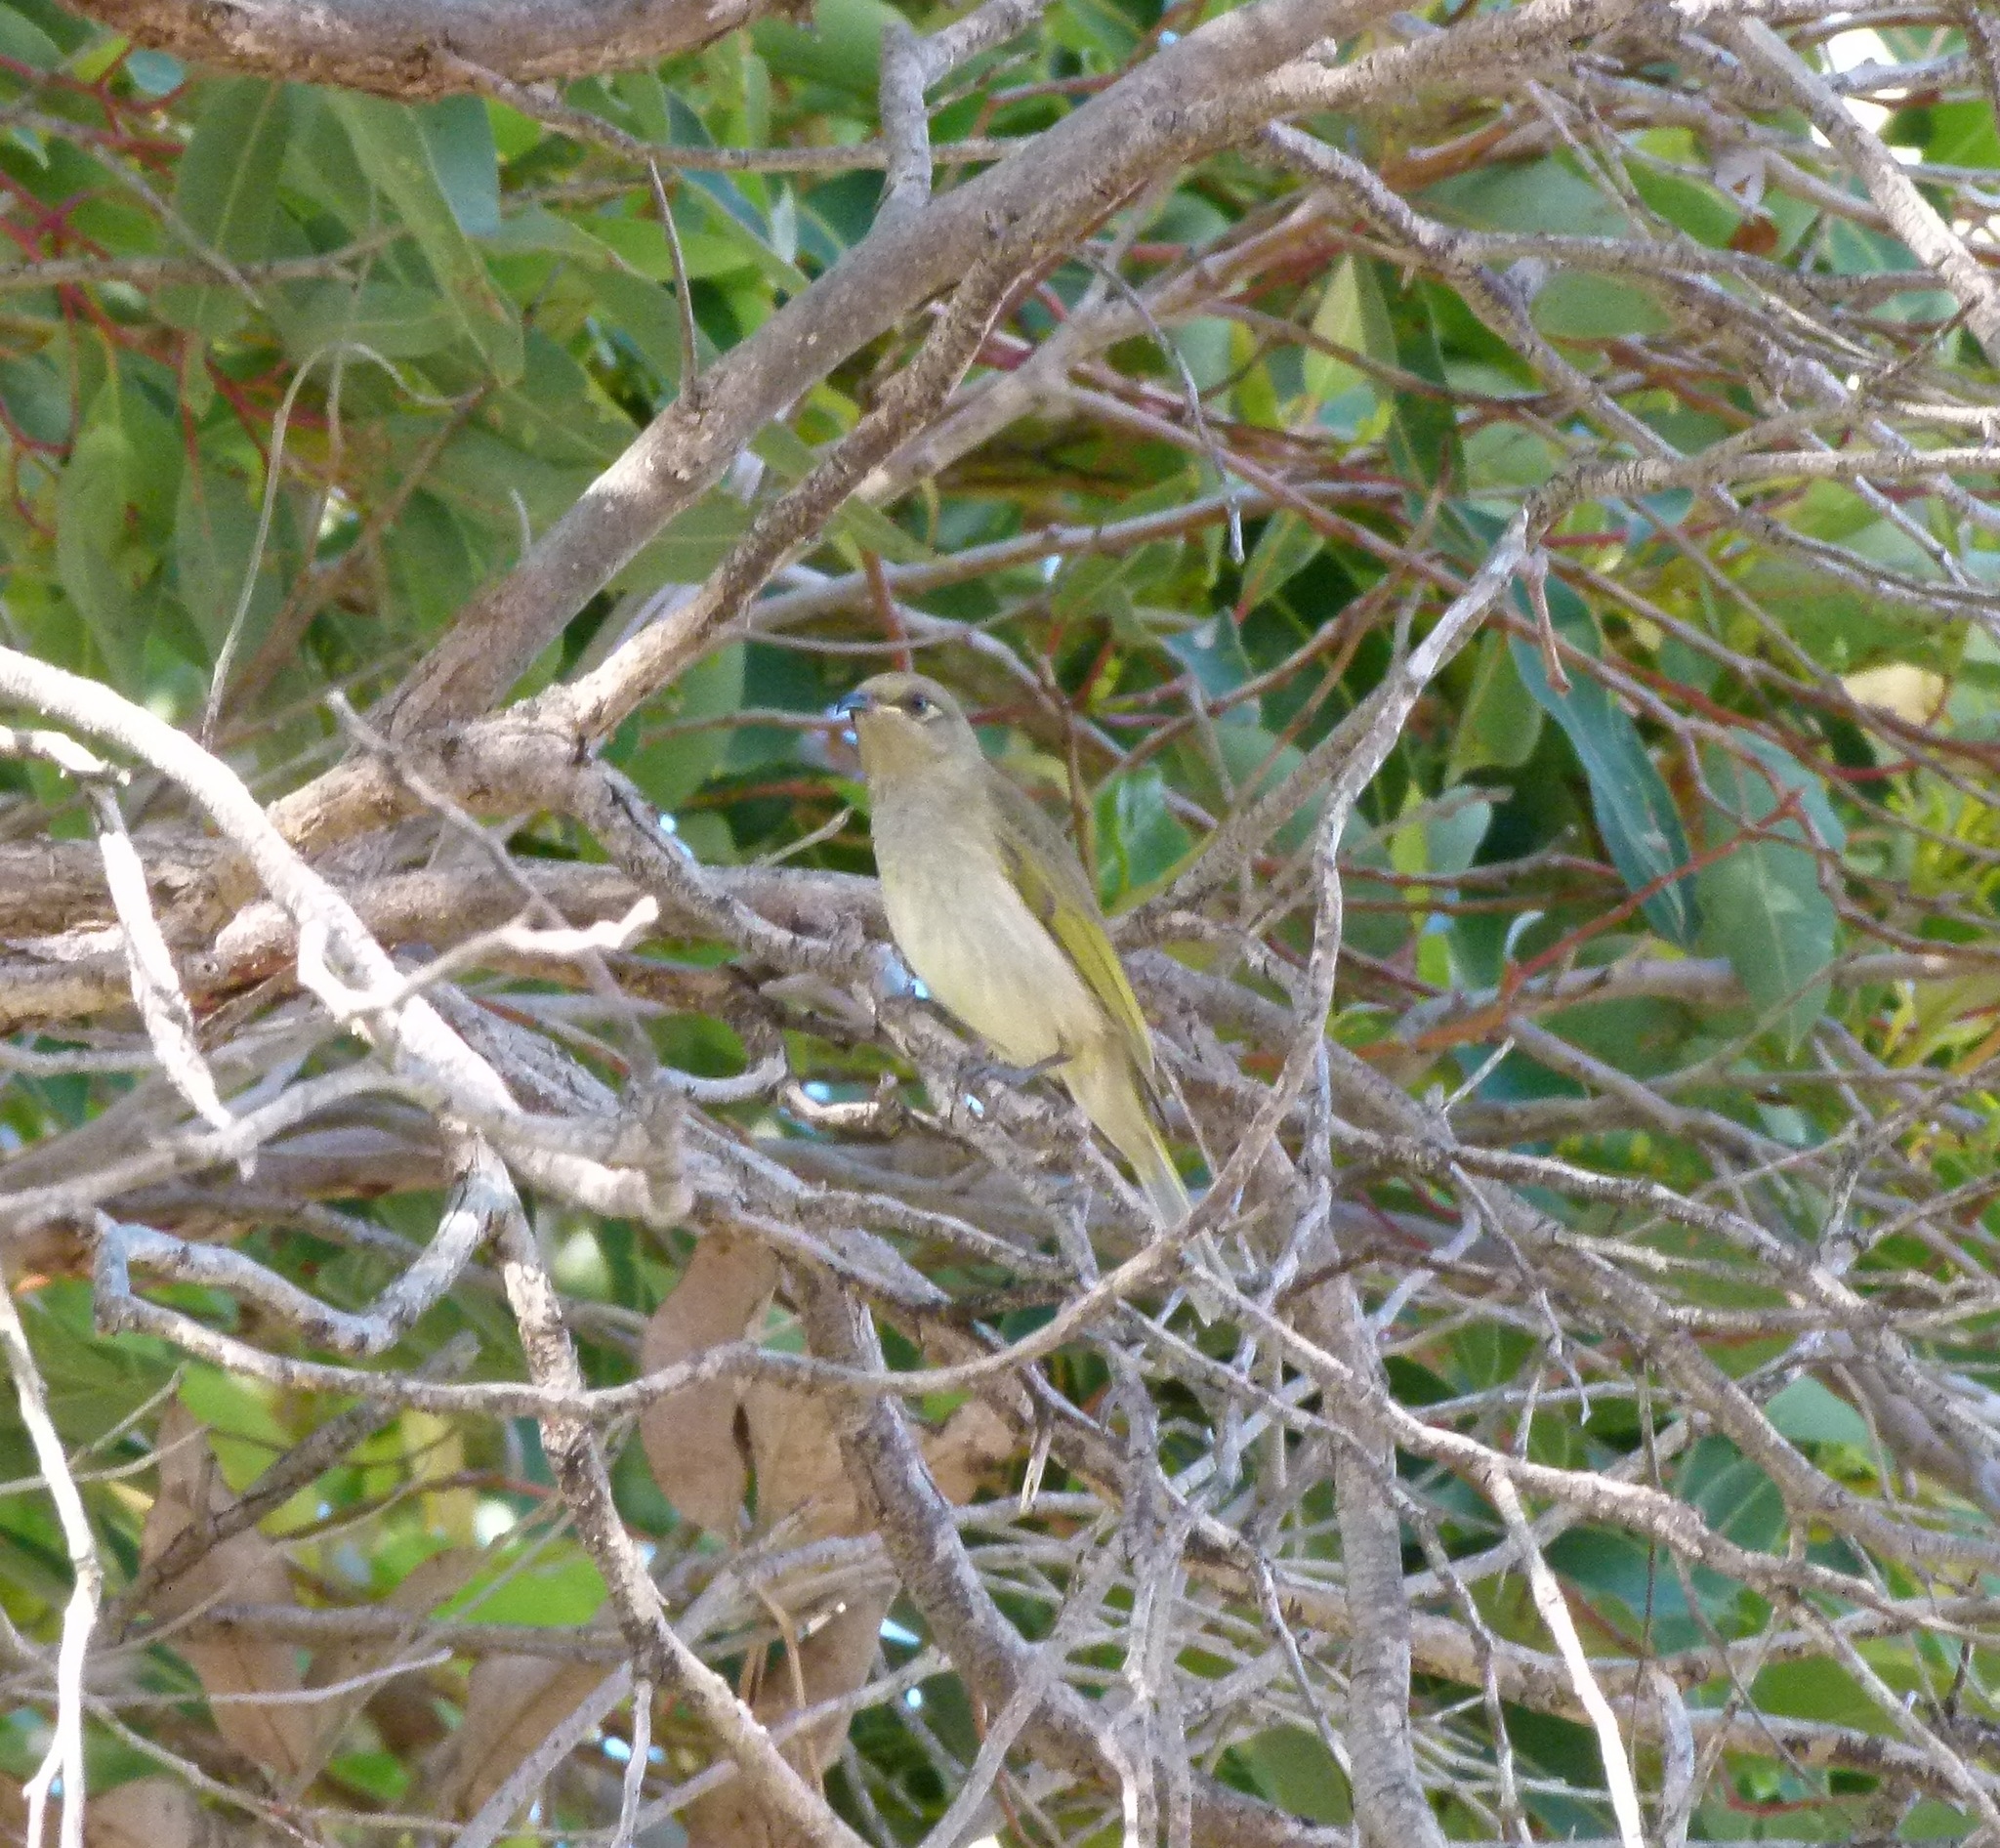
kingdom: Animalia
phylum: Chordata
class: Aves
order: Passeriformes
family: Meliphagidae
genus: Lichmera
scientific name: Lichmera indistincta
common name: Brown honeyeater
